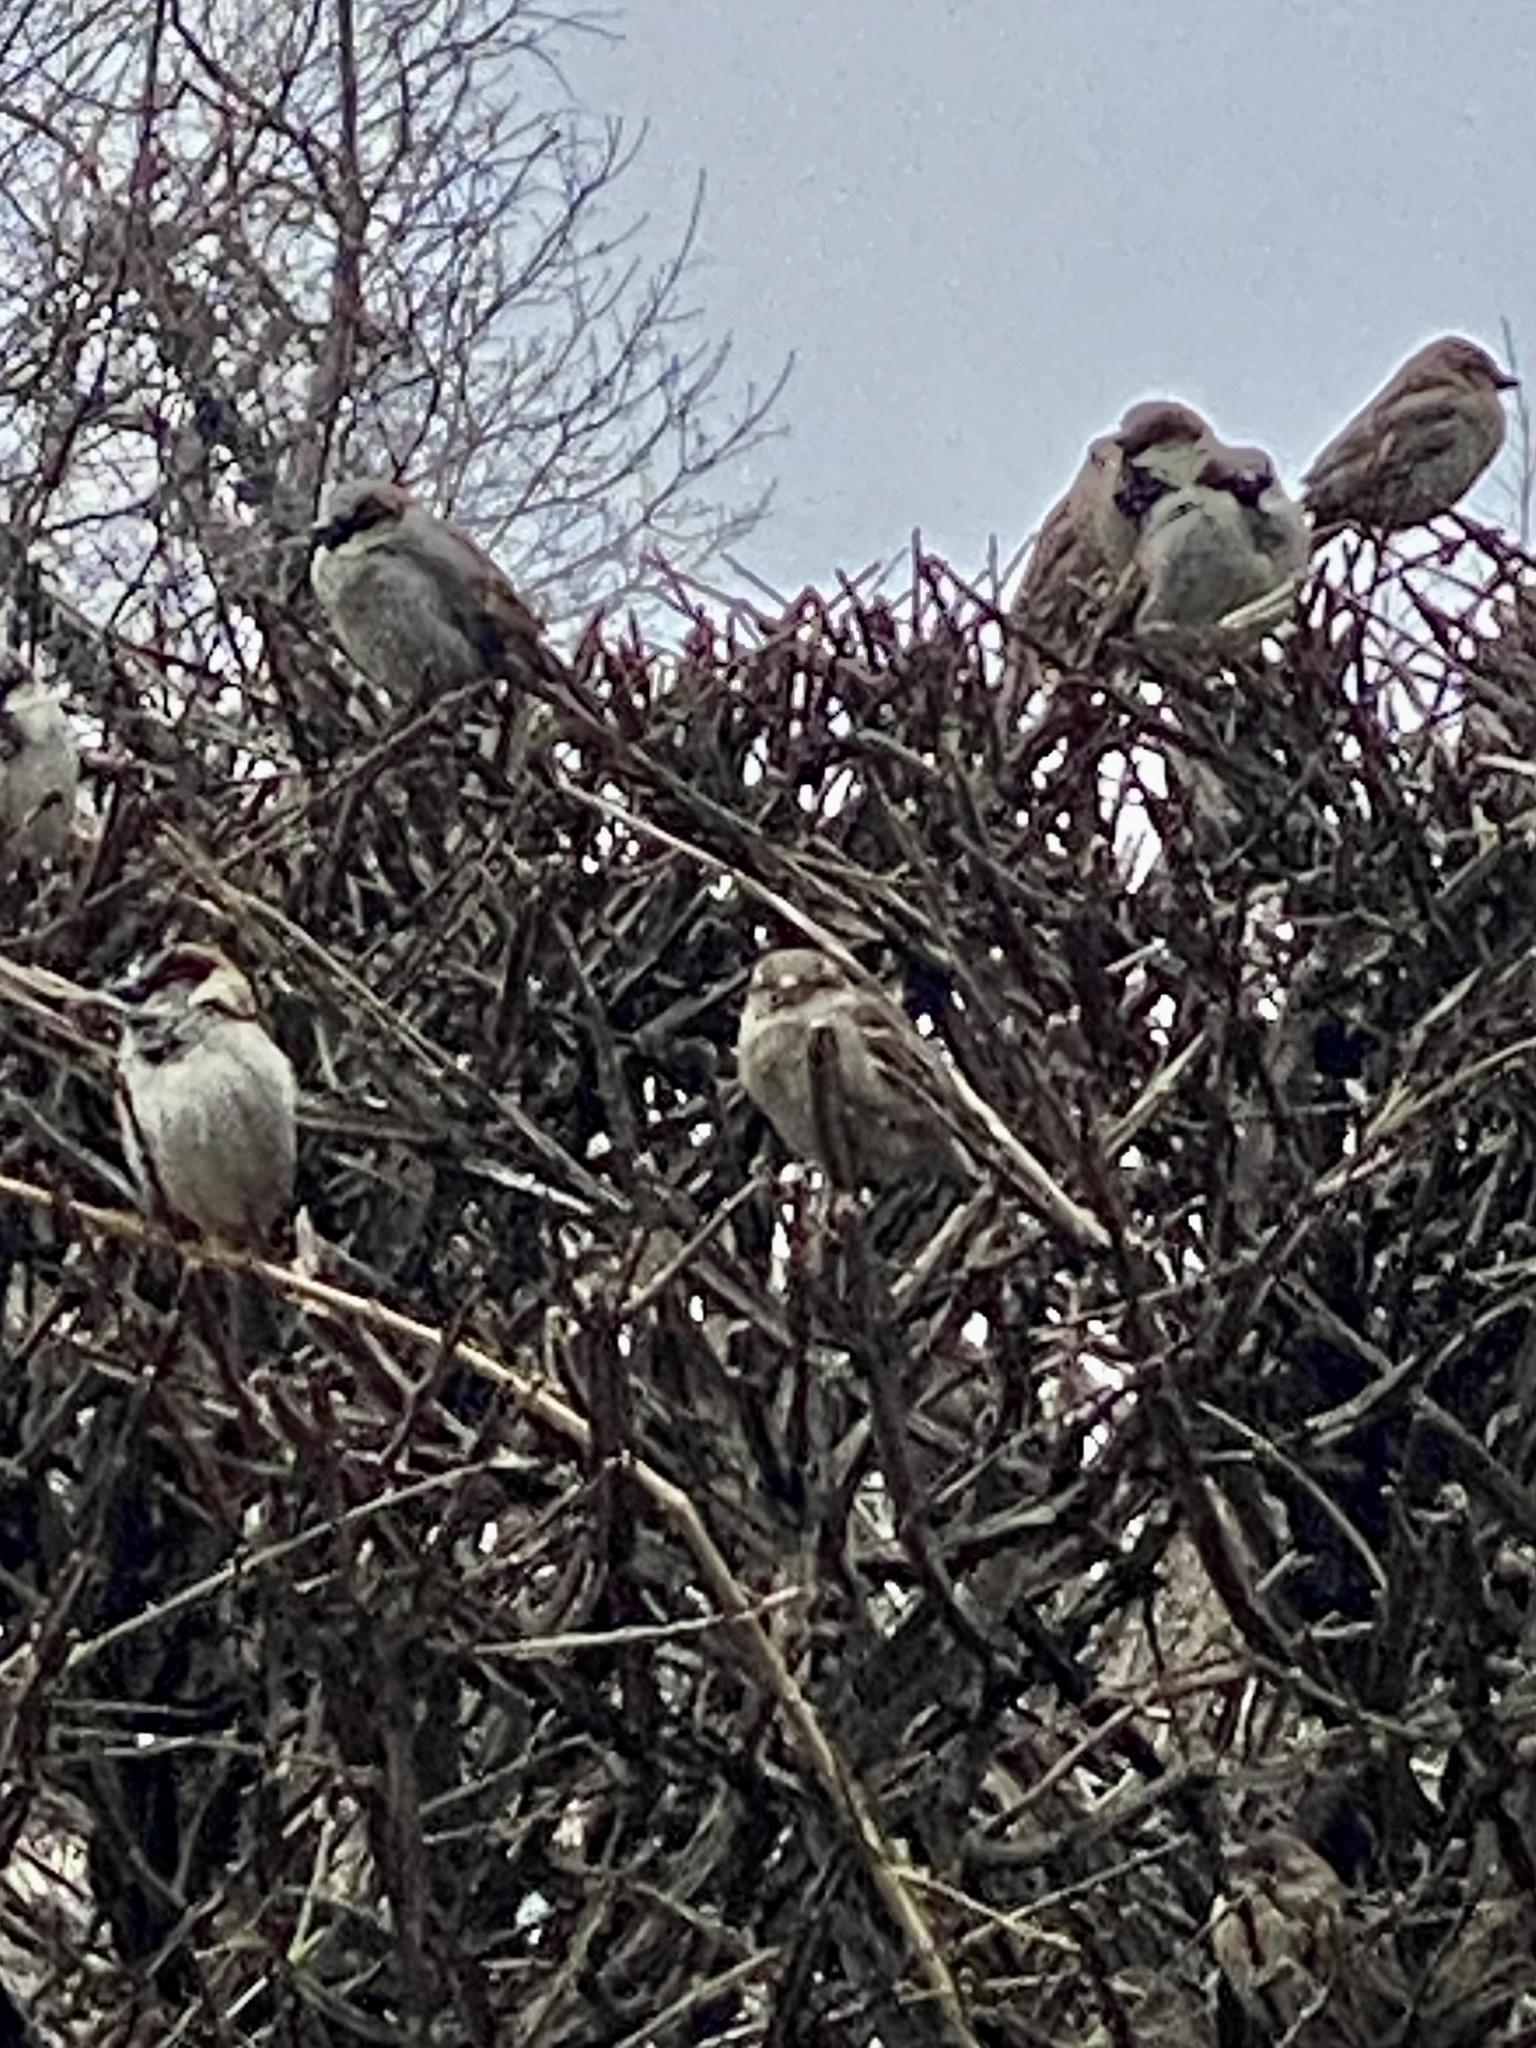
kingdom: Animalia
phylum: Chordata
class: Aves
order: Passeriformes
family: Passeridae
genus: Passer
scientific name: Passer domesticus
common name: House sparrow
